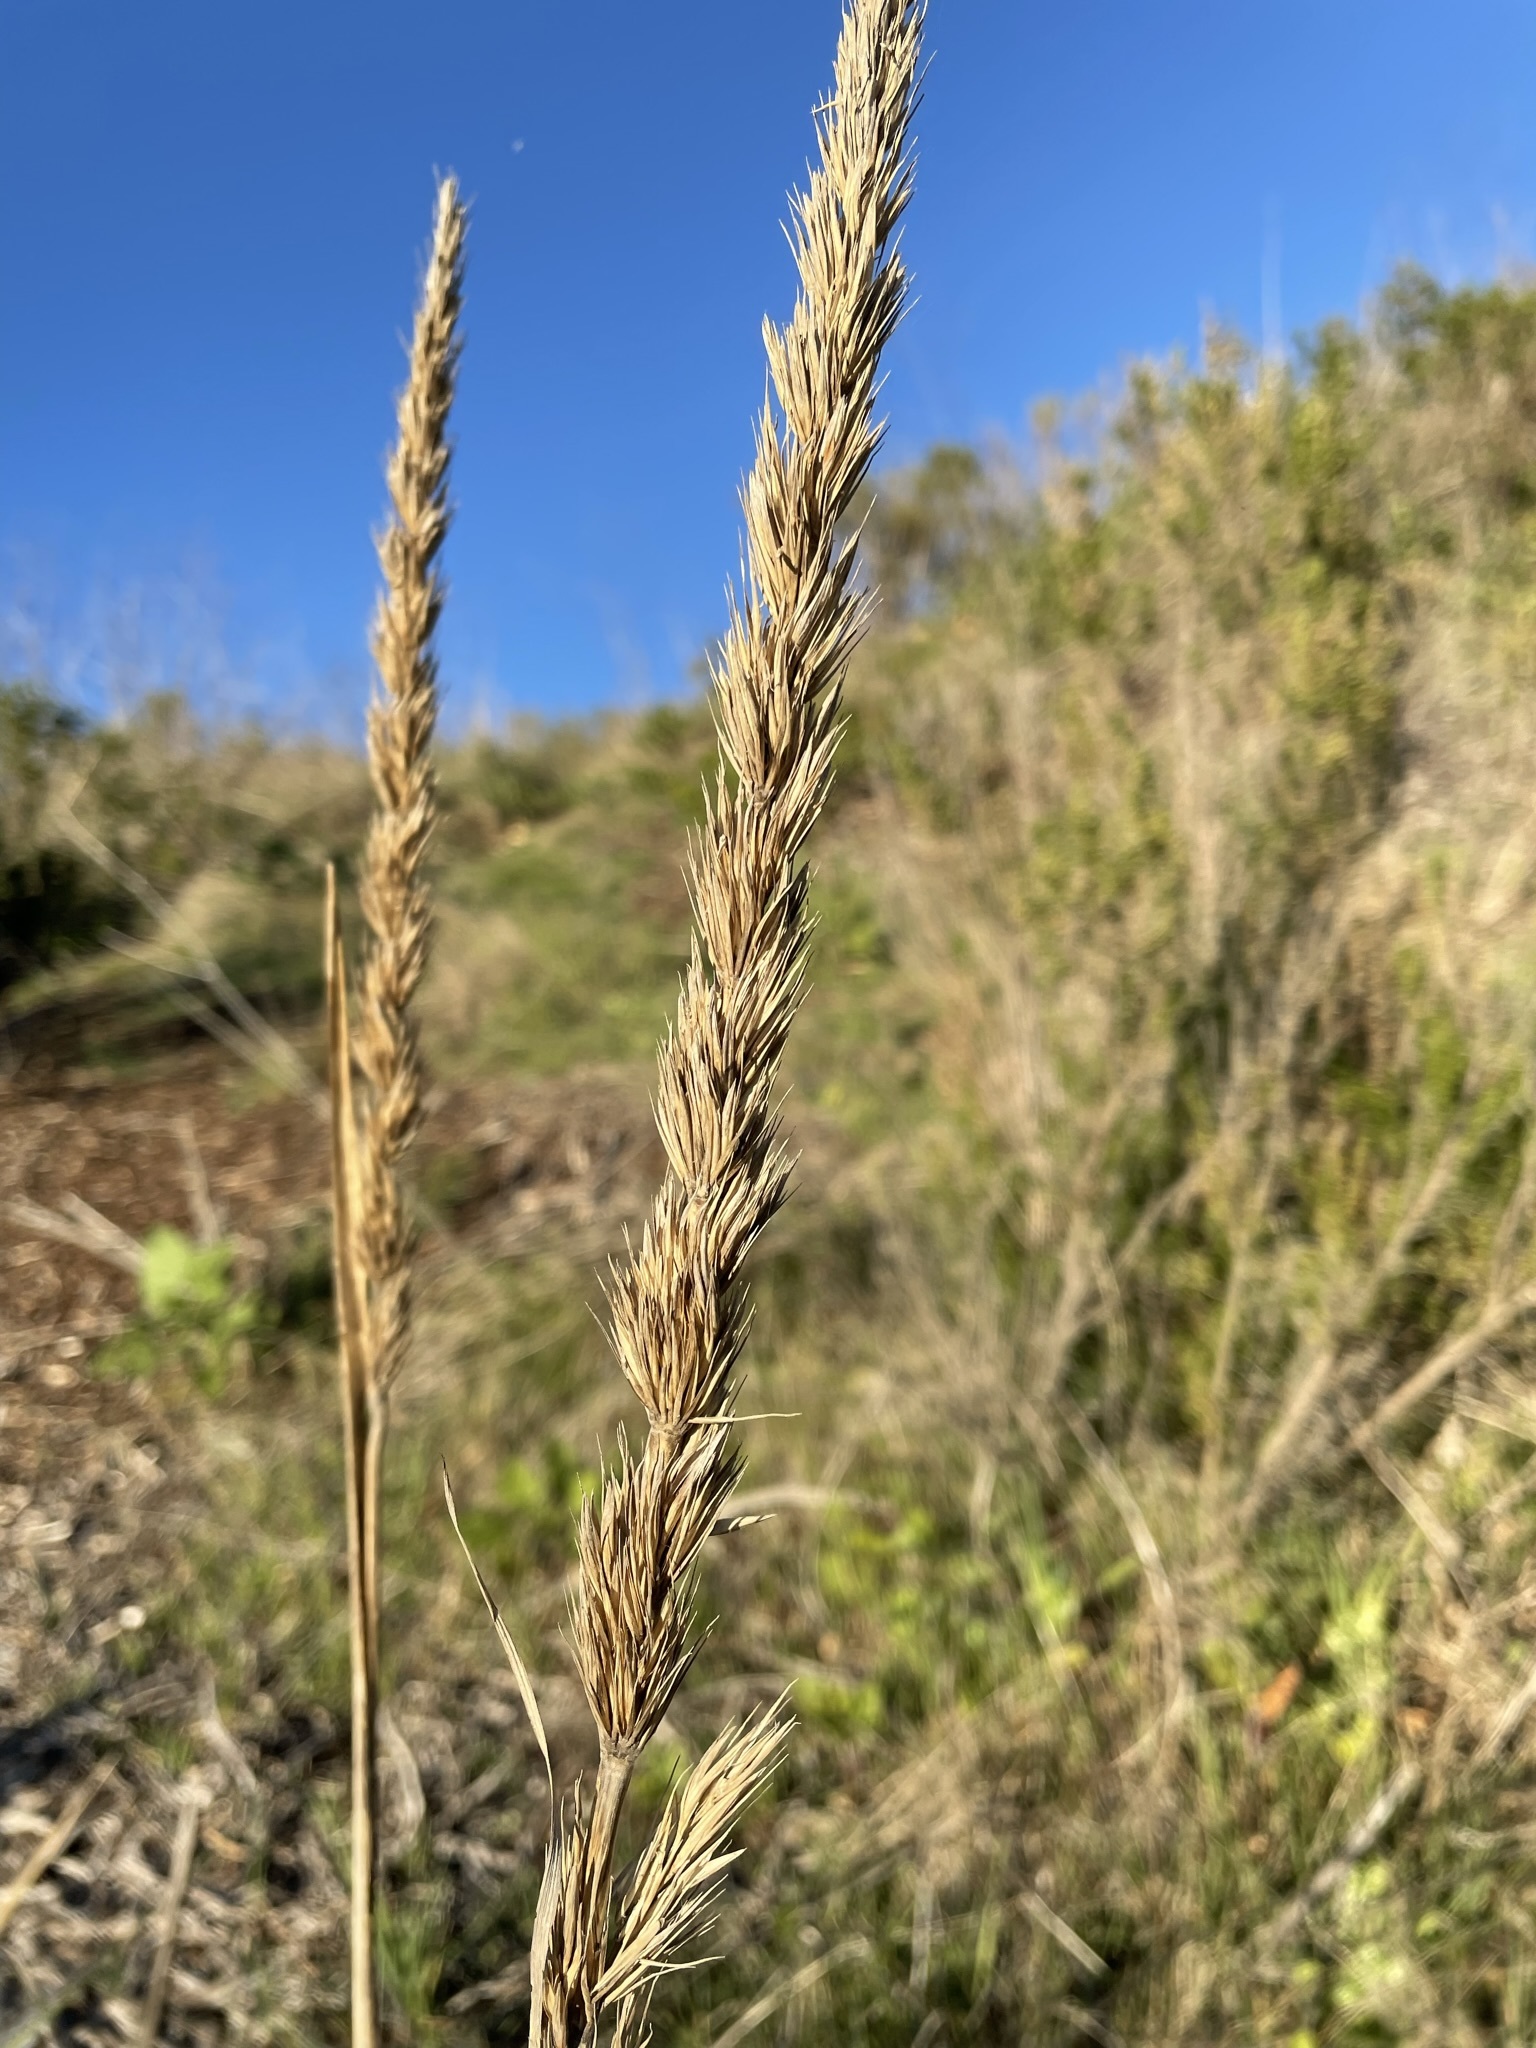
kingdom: Plantae
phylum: Tracheophyta
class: Liliopsida
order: Poales
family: Poaceae
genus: Leymus
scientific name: Leymus condensatus
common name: Giant wild rye
